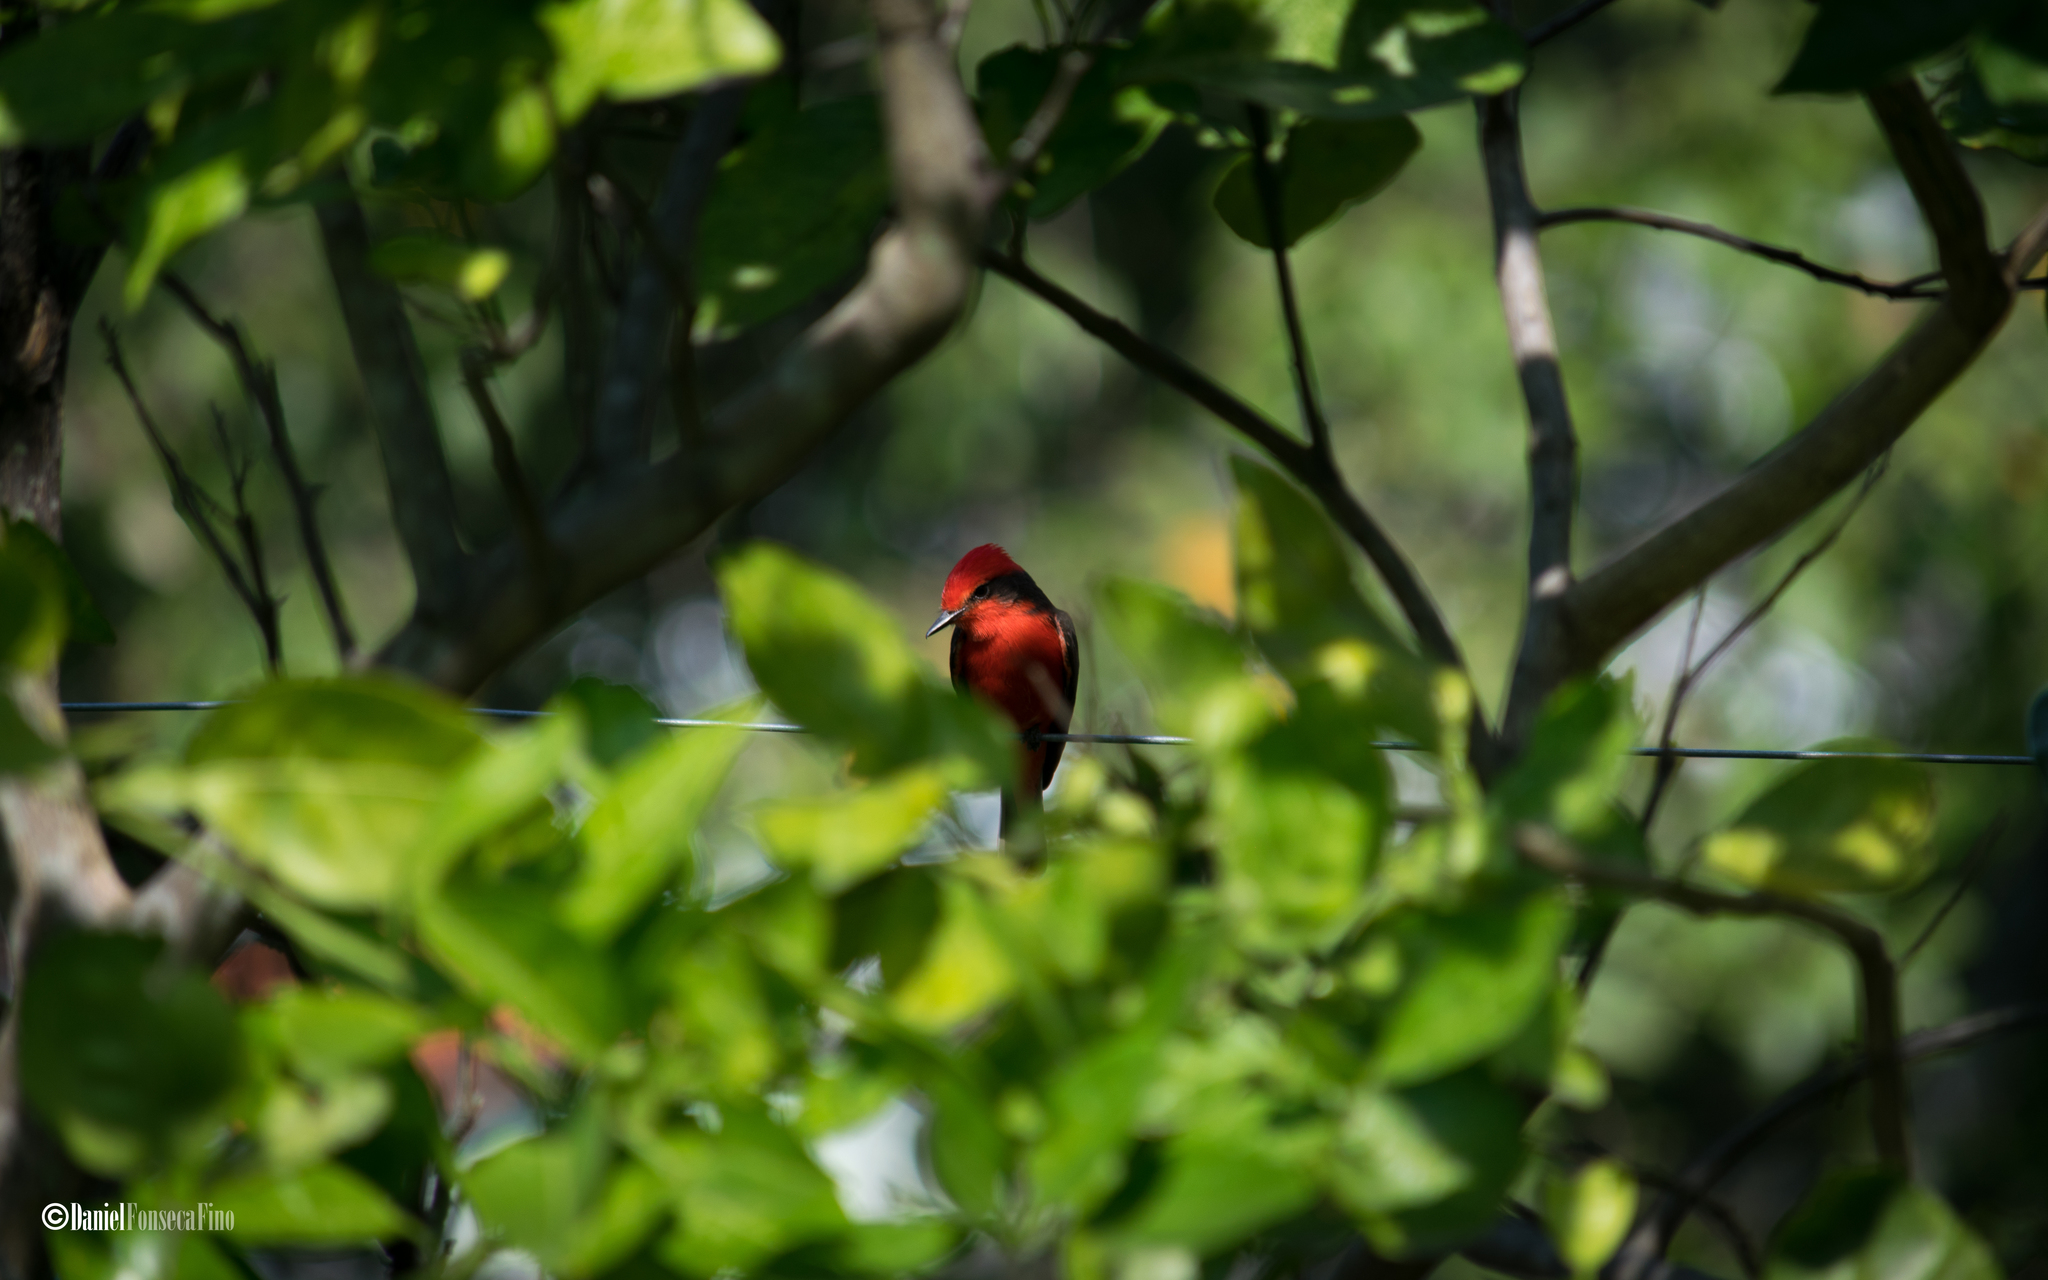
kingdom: Animalia
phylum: Chordata
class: Aves
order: Passeriformes
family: Tyrannidae
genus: Pyrocephalus
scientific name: Pyrocephalus rubinus
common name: Vermilion flycatcher
